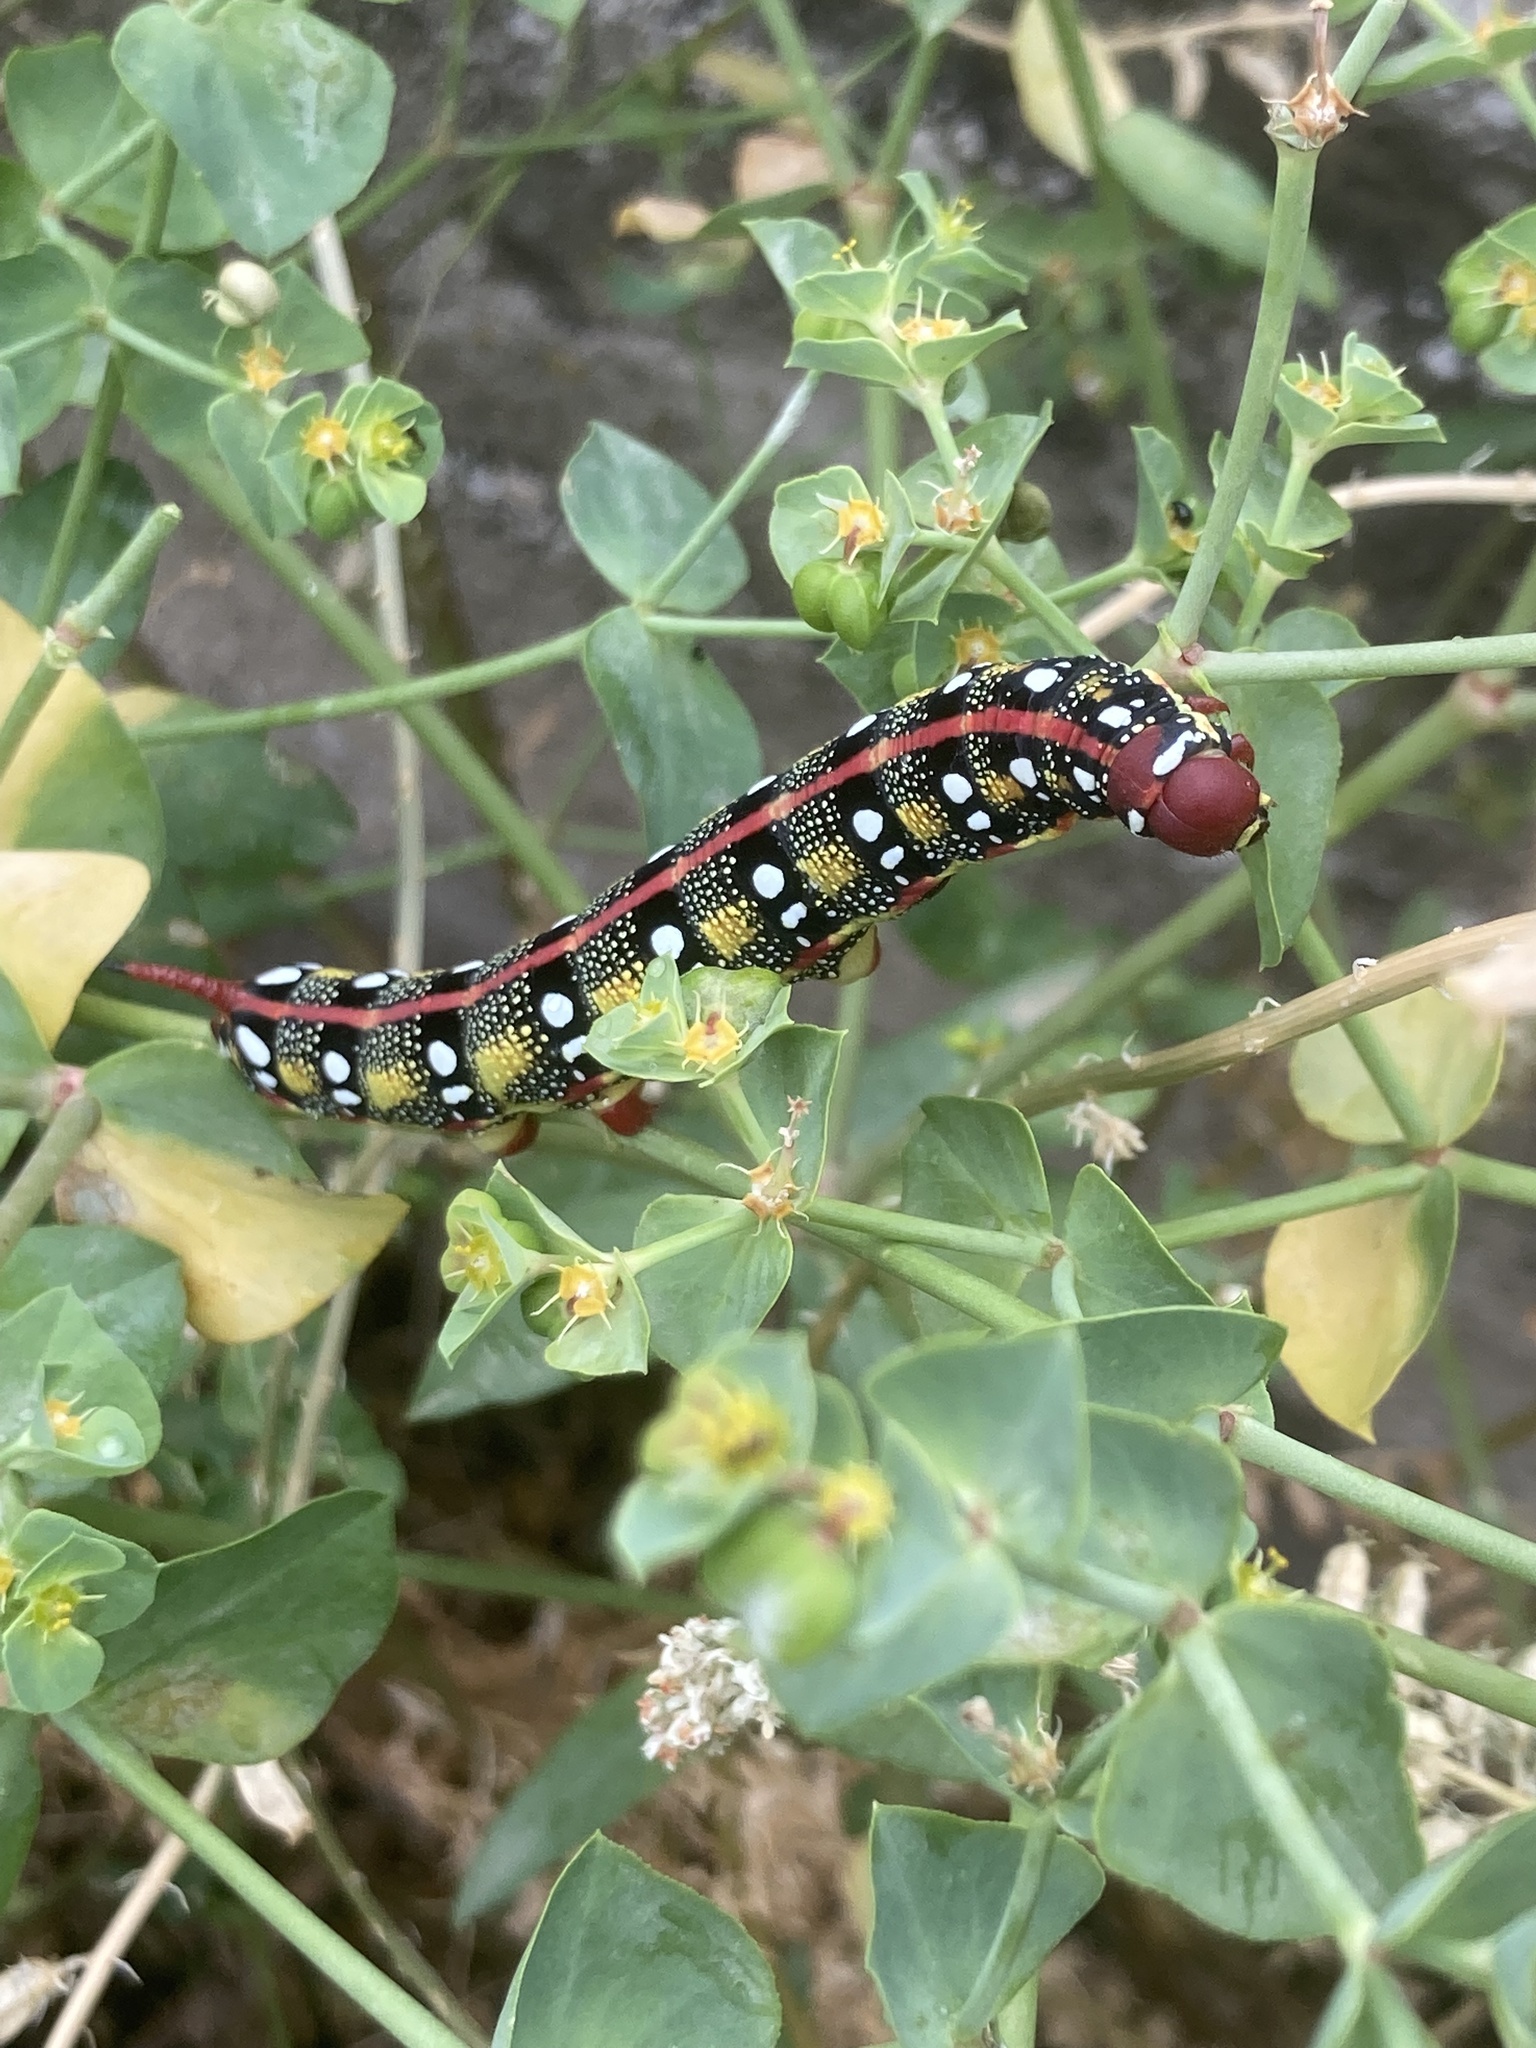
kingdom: Animalia
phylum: Arthropoda
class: Insecta
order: Lepidoptera
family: Sphingidae
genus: Hyles
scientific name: Hyles euphorbiae
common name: Spurge hawk-moth
